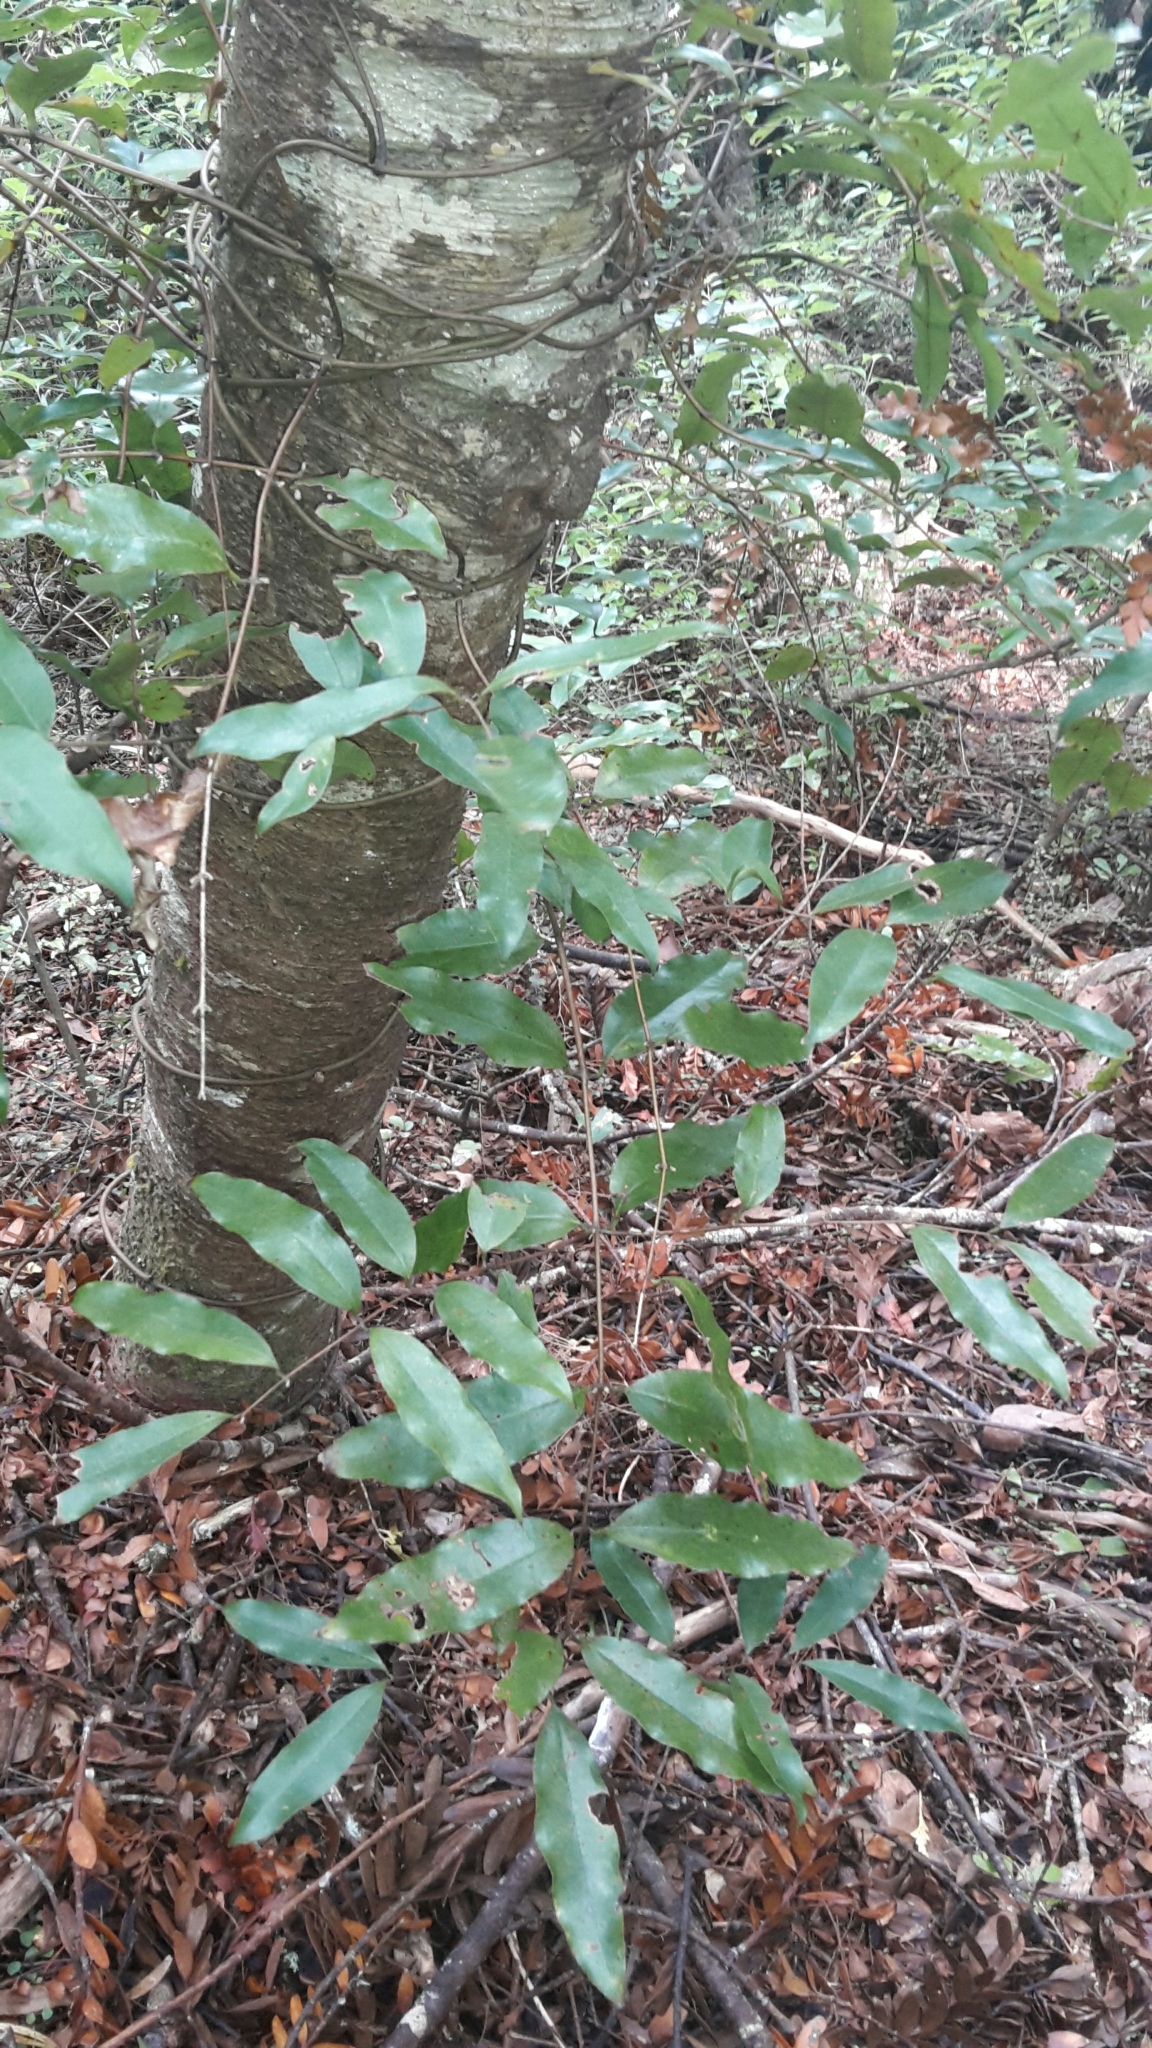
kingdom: Plantae
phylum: Tracheophyta
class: Liliopsida
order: Liliales
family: Ripogonaceae
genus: Ripogonum
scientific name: Ripogonum scandens
